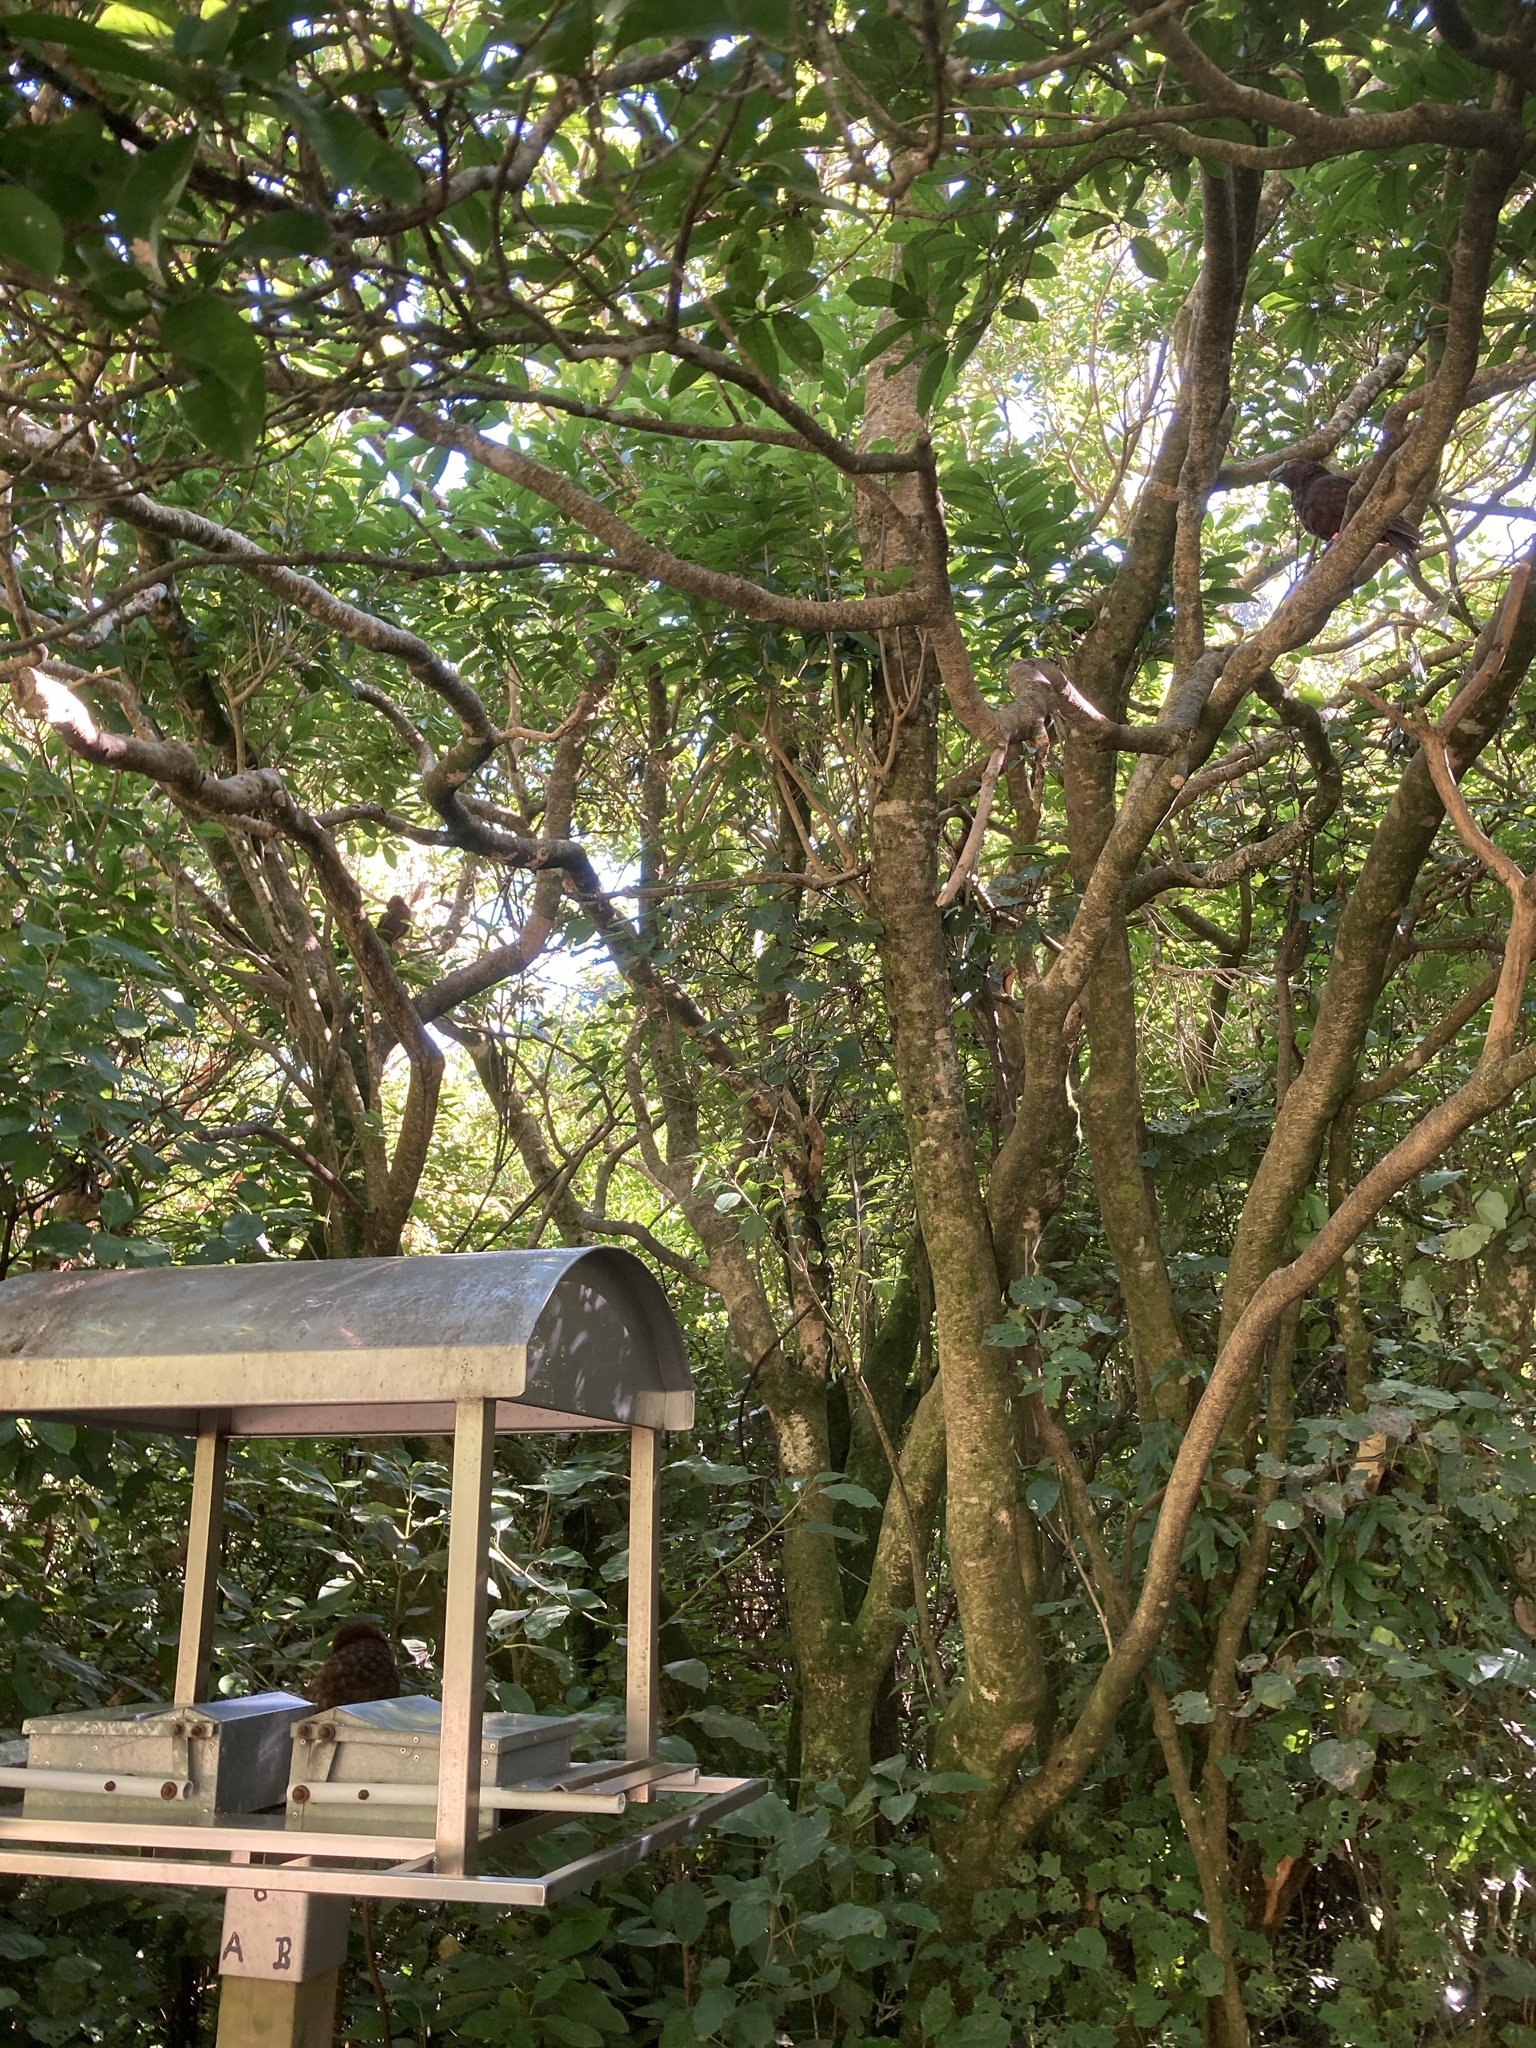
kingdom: Animalia
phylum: Chordata
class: Aves
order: Psittaciformes
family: Psittacidae
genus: Nestor
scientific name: Nestor meridionalis
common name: New zealand kaka
